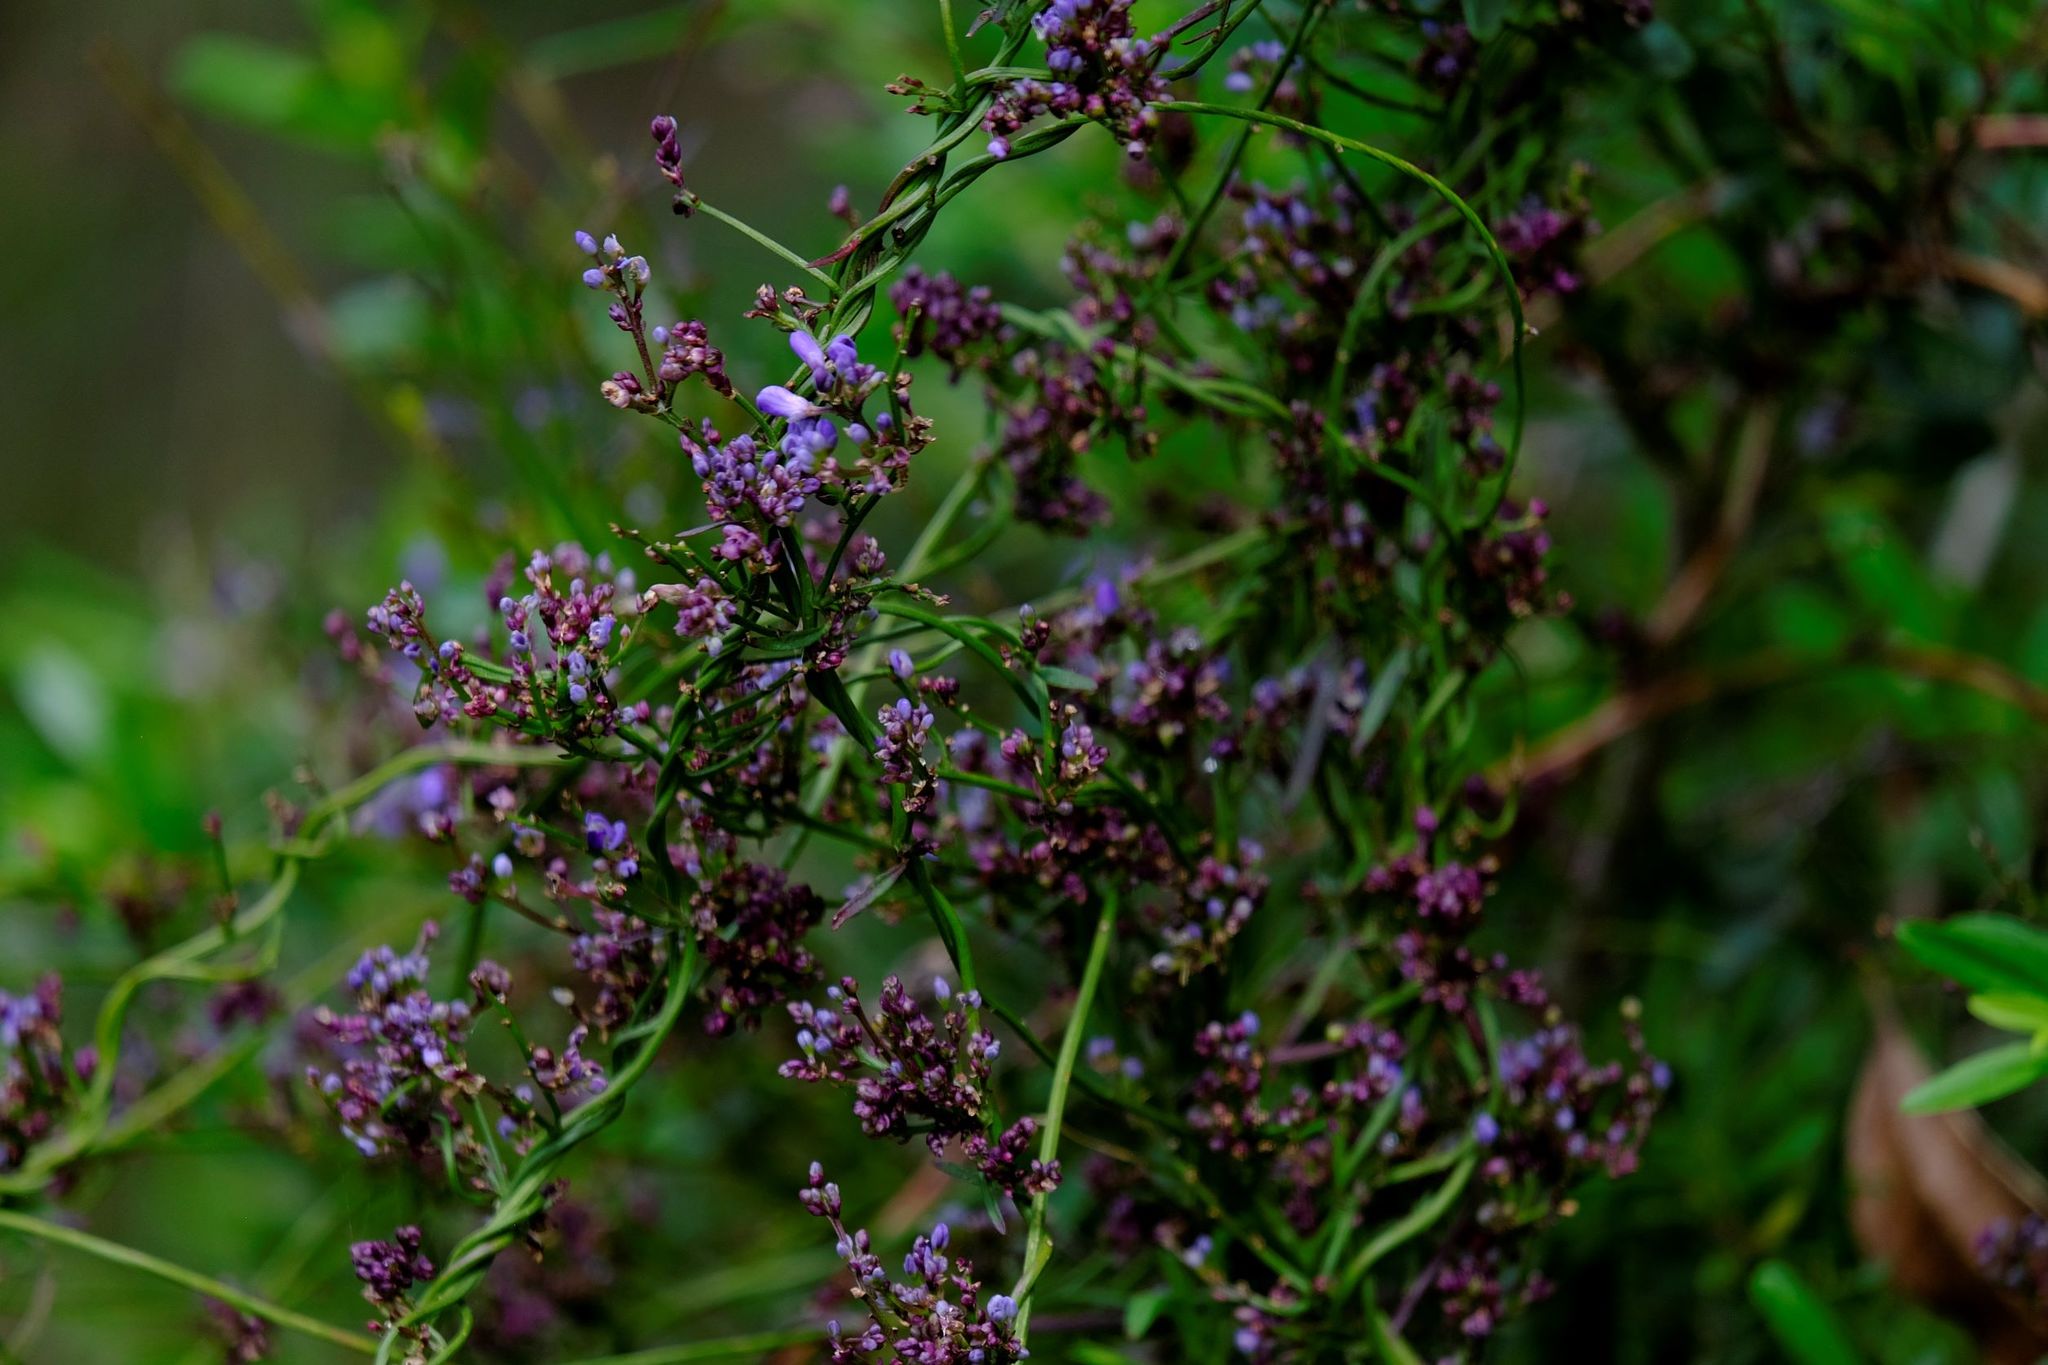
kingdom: Plantae
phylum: Tracheophyta
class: Magnoliopsida
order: Fabales
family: Polygalaceae
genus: Comesperma
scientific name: Comesperma volubile
